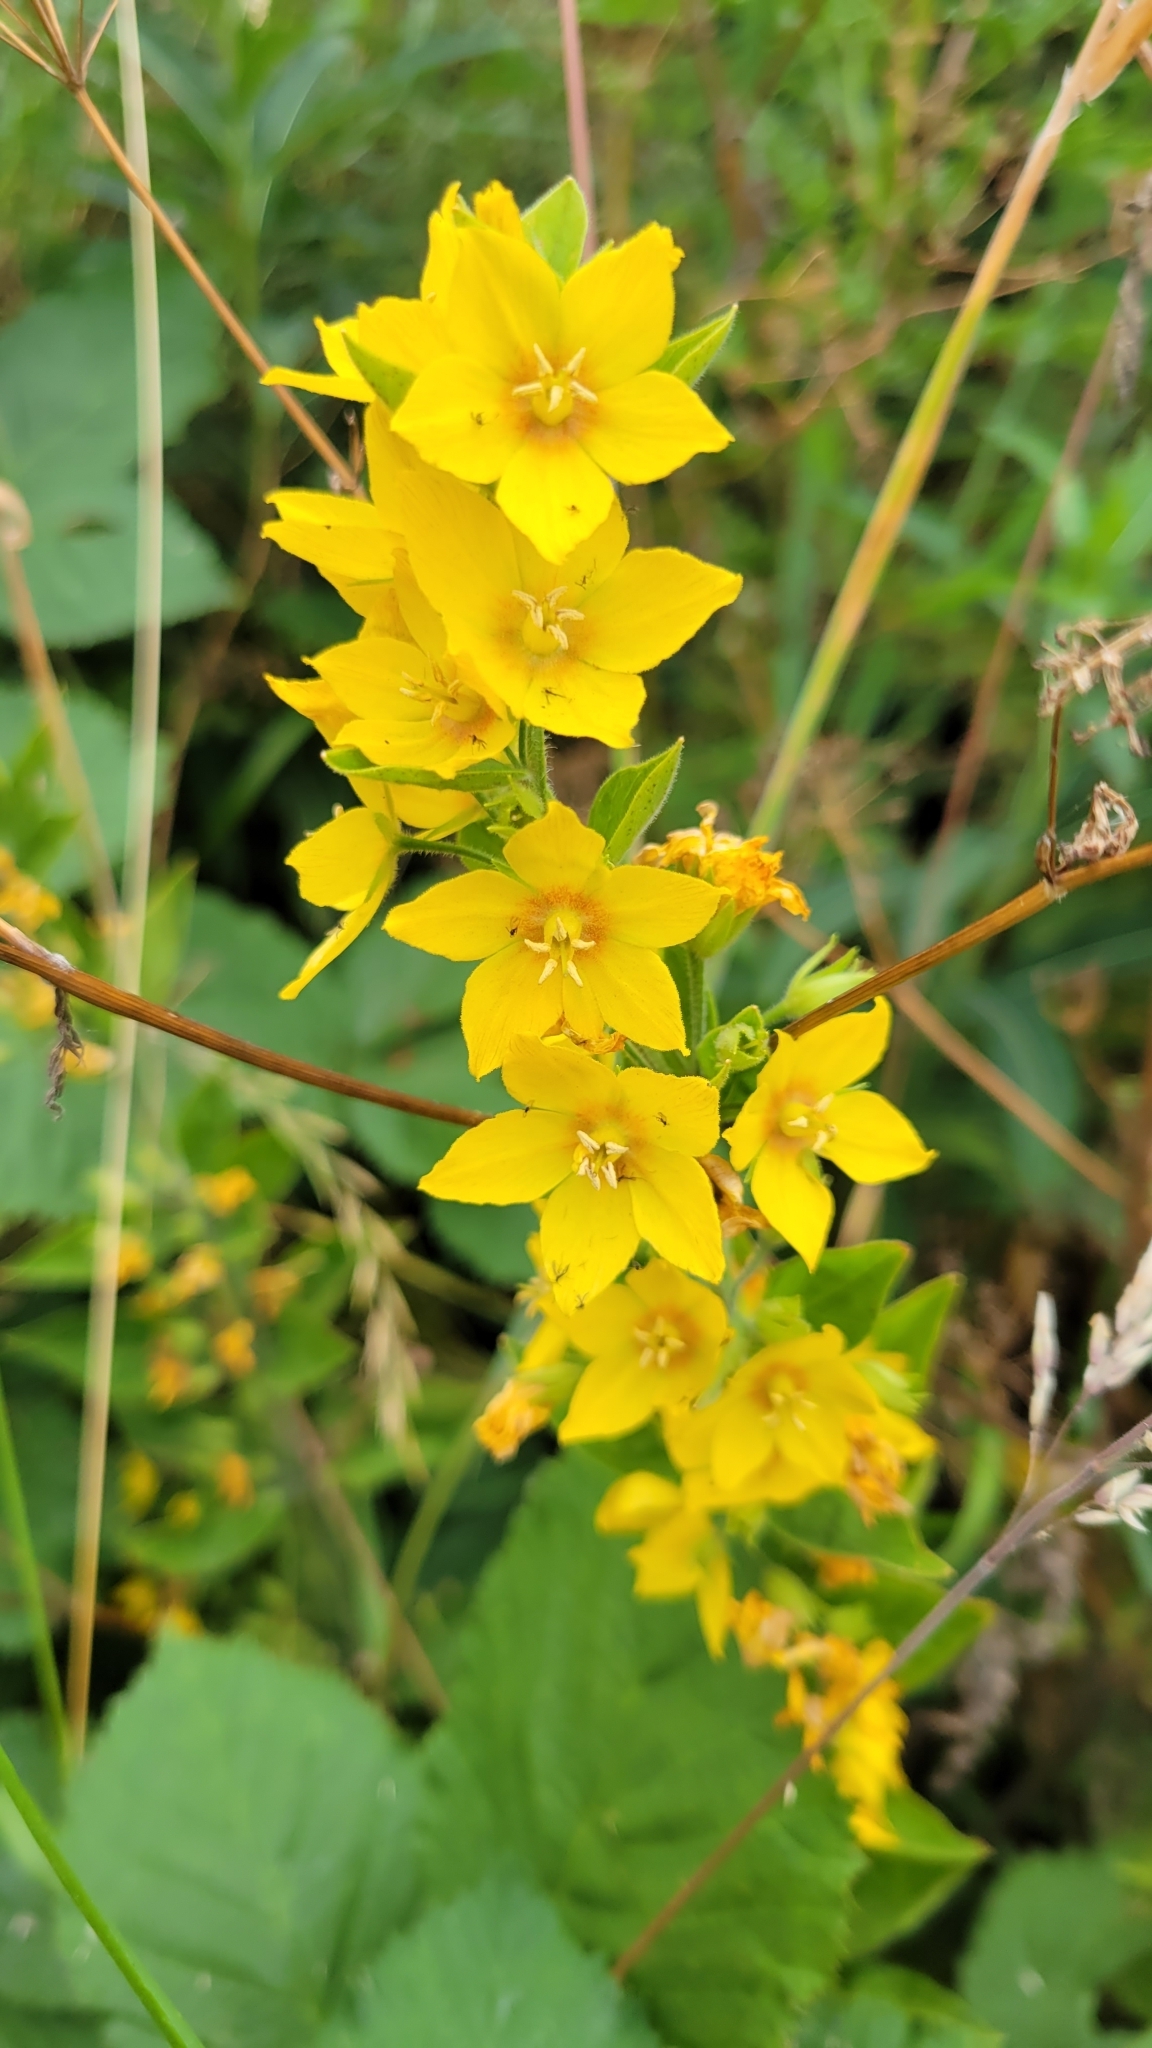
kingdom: Plantae
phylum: Tracheophyta
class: Magnoliopsida
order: Ericales
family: Primulaceae
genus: Lysimachia
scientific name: Lysimachia punctata
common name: Dotted loosestrife
